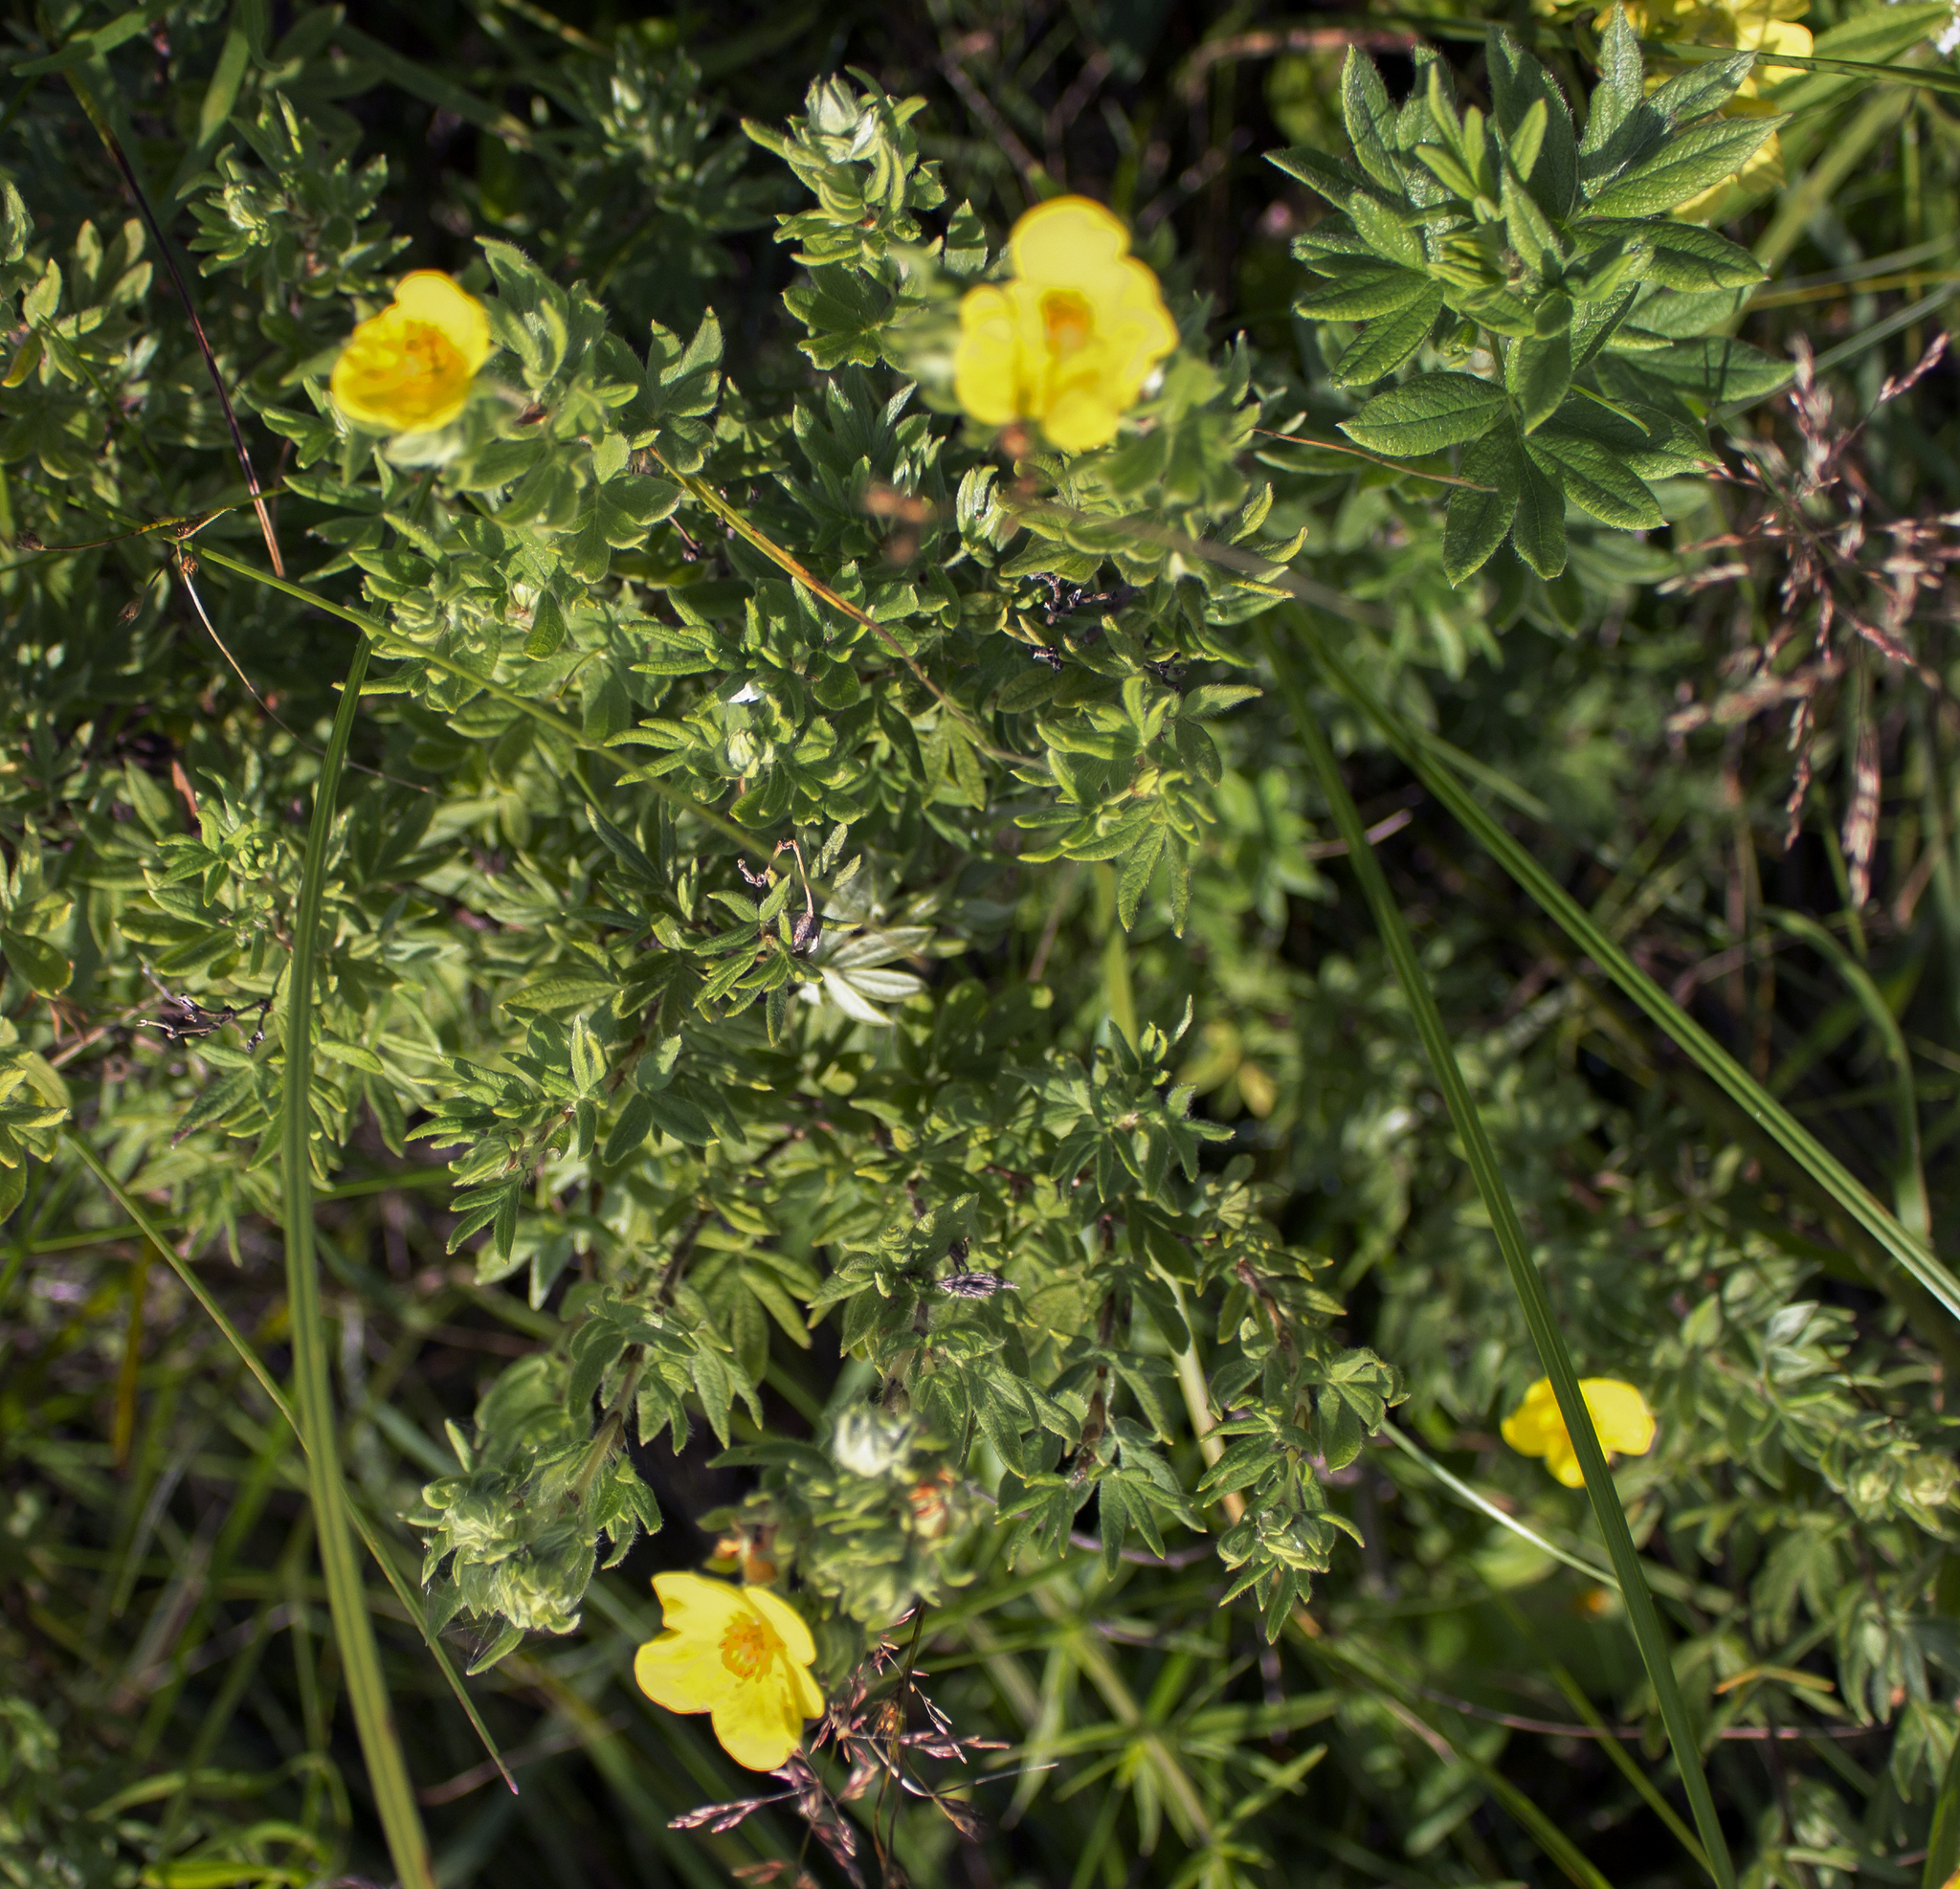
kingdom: Plantae
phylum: Tracheophyta
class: Magnoliopsida
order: Rosales
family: Rosaceae
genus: Dasiphora
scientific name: Dasiphora fruticosa
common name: Shrubby cinquefoil
